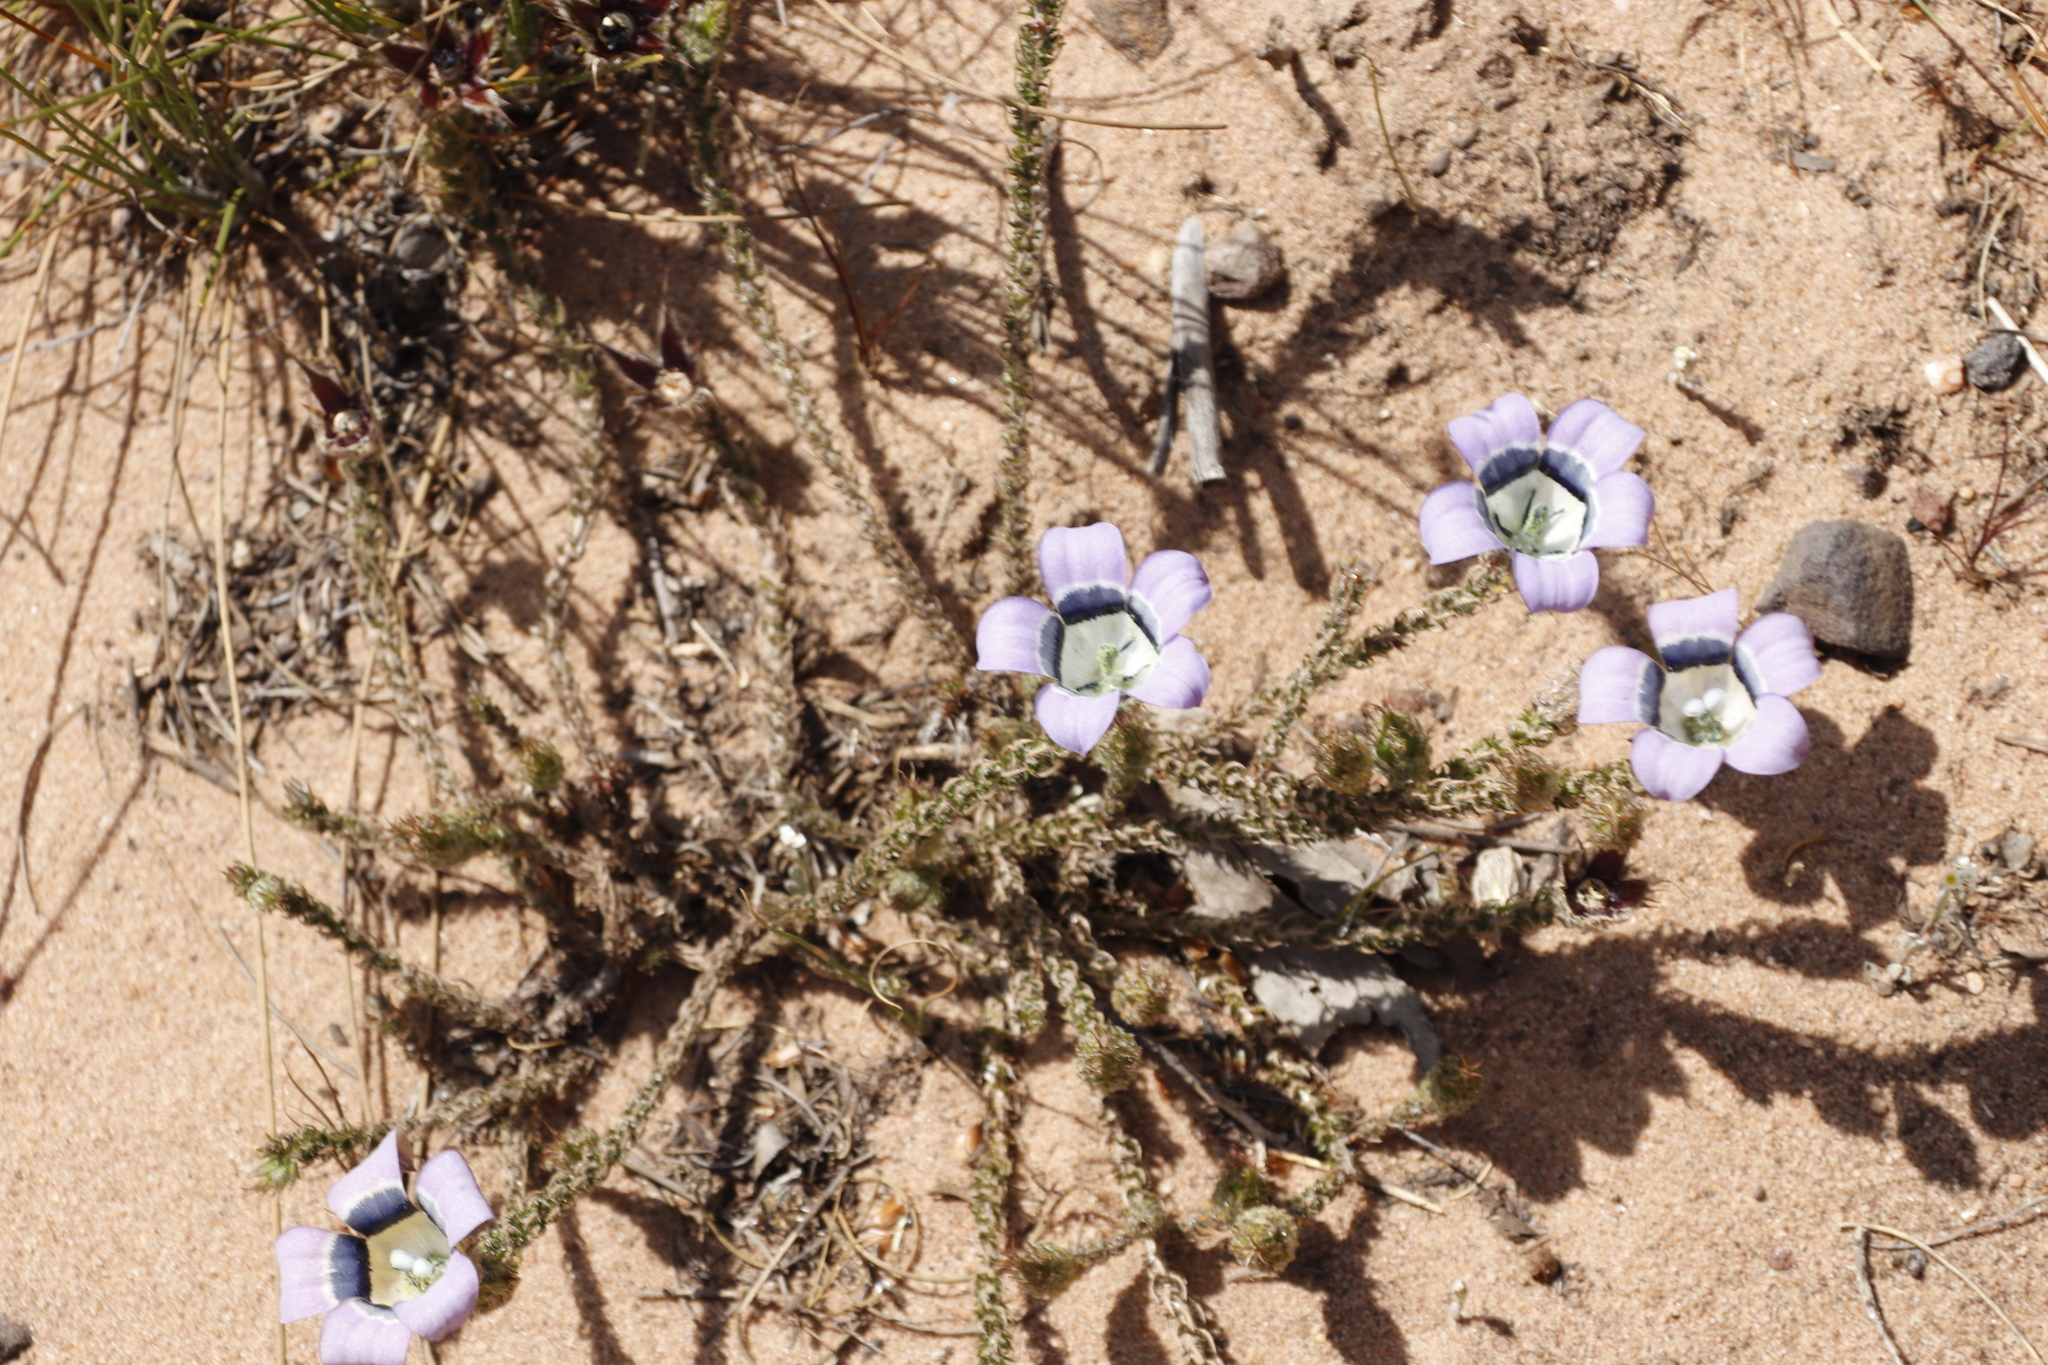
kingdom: Plantae
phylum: Tracheophyta
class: Magnoliopsida
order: Asterales
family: Campanulaceae
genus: Roella
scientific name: Roella ciliata
